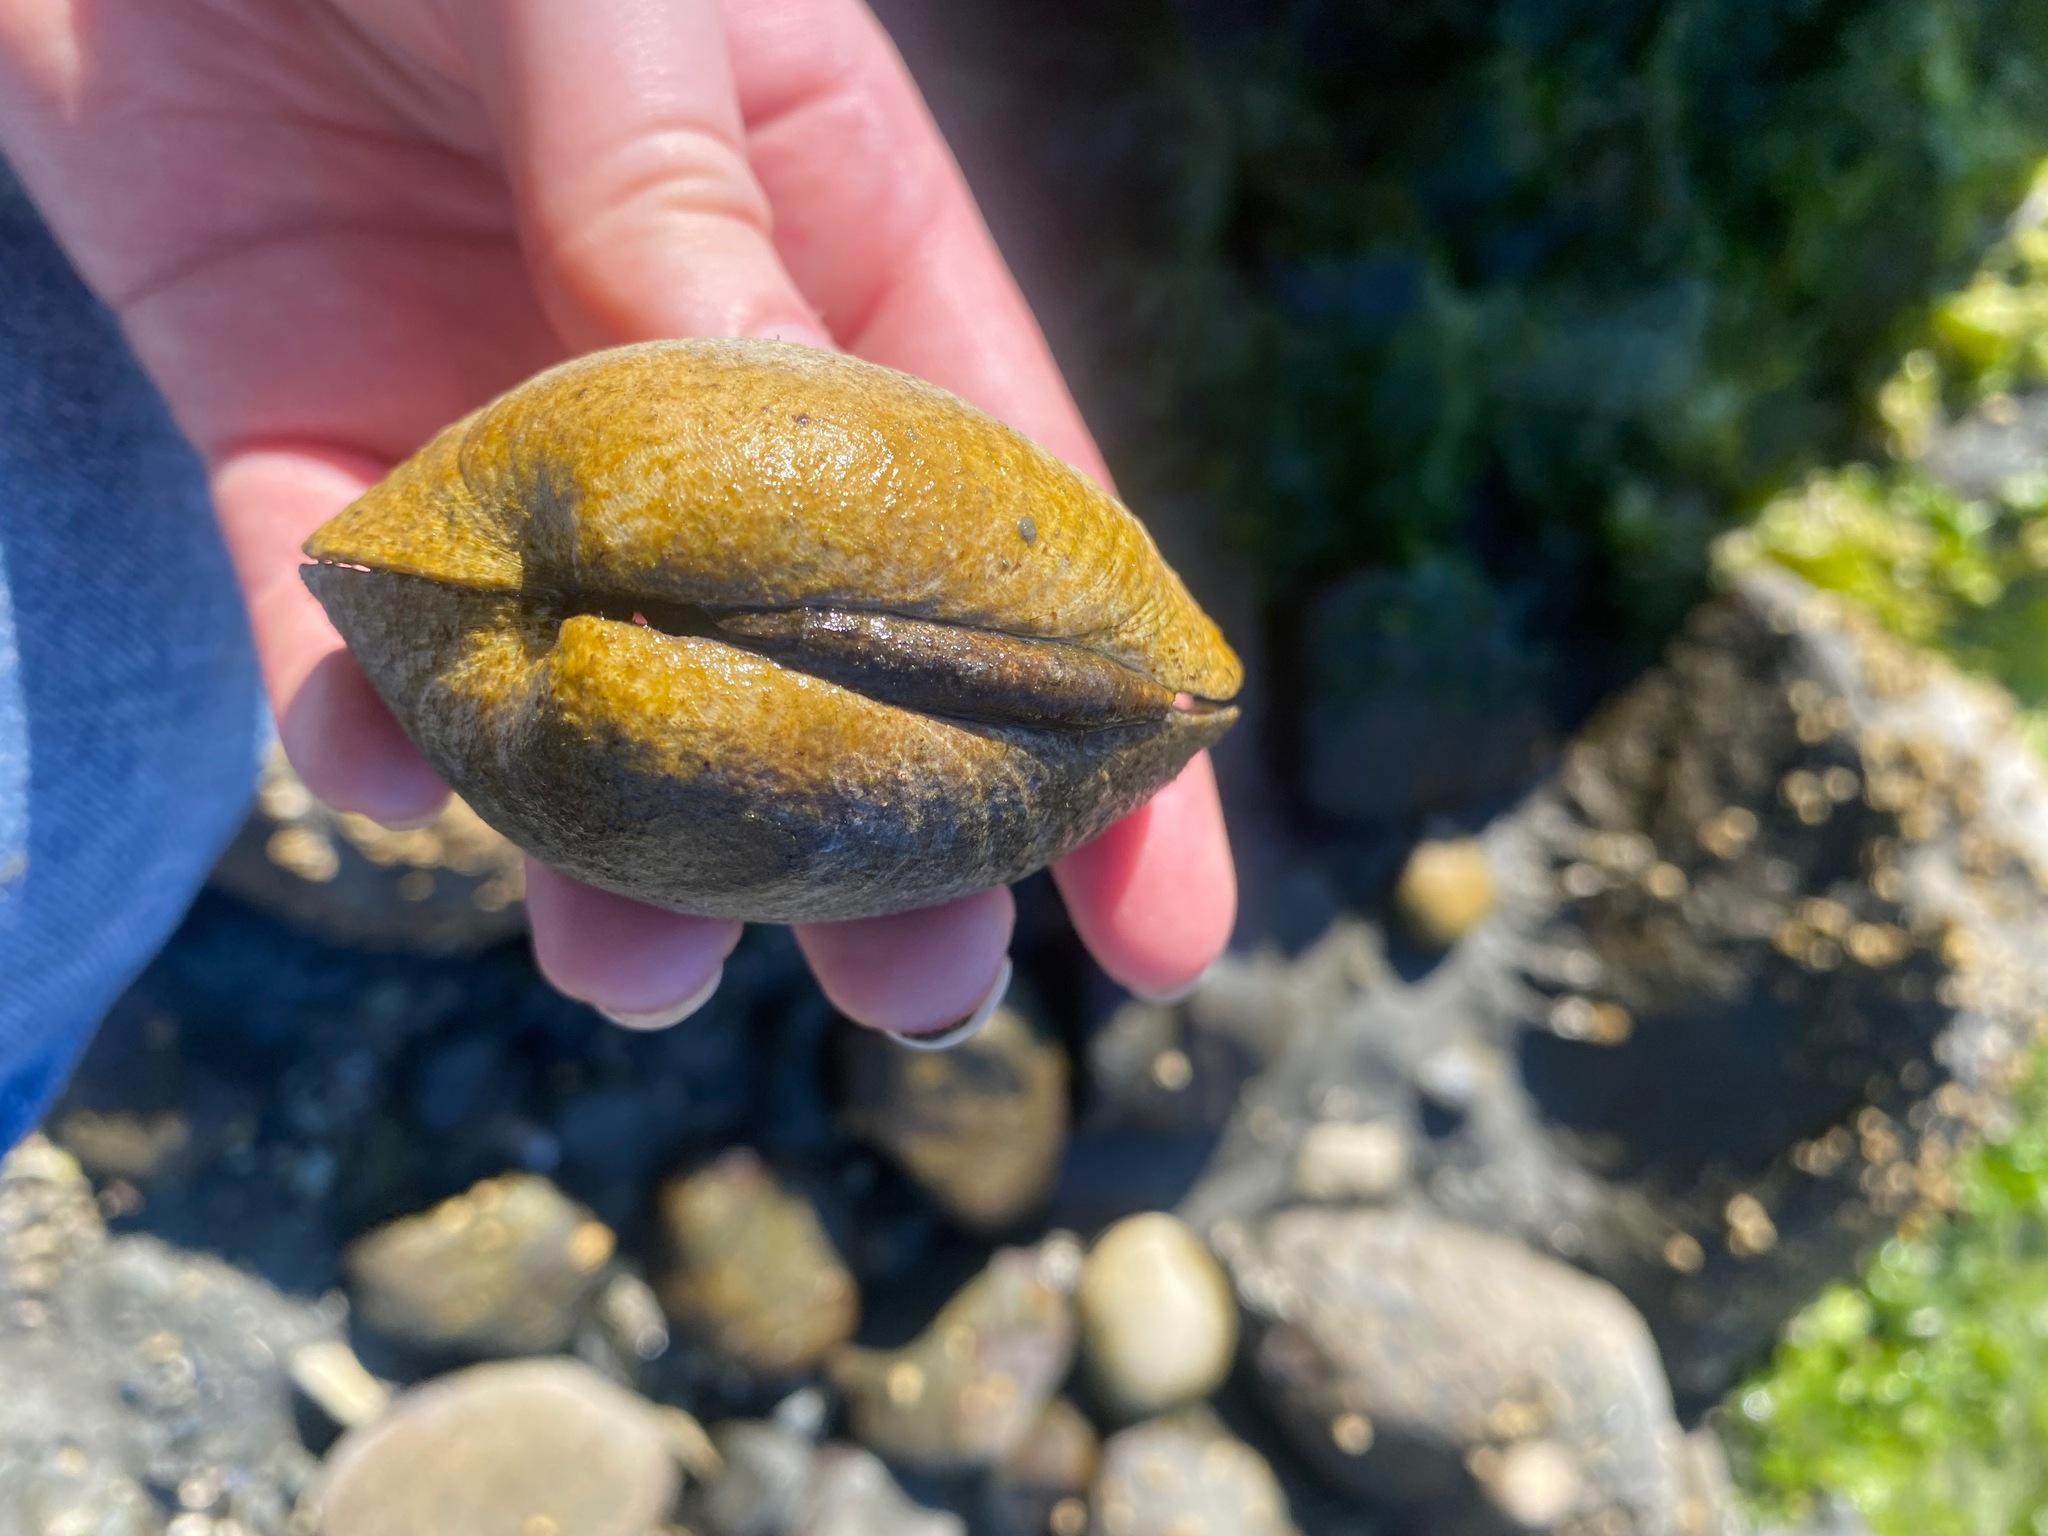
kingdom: Animalia
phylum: Mollusca
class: Bivalvia
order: Venerida
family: Veneridae
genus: Saxidomus
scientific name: Saxidomus gigantea
